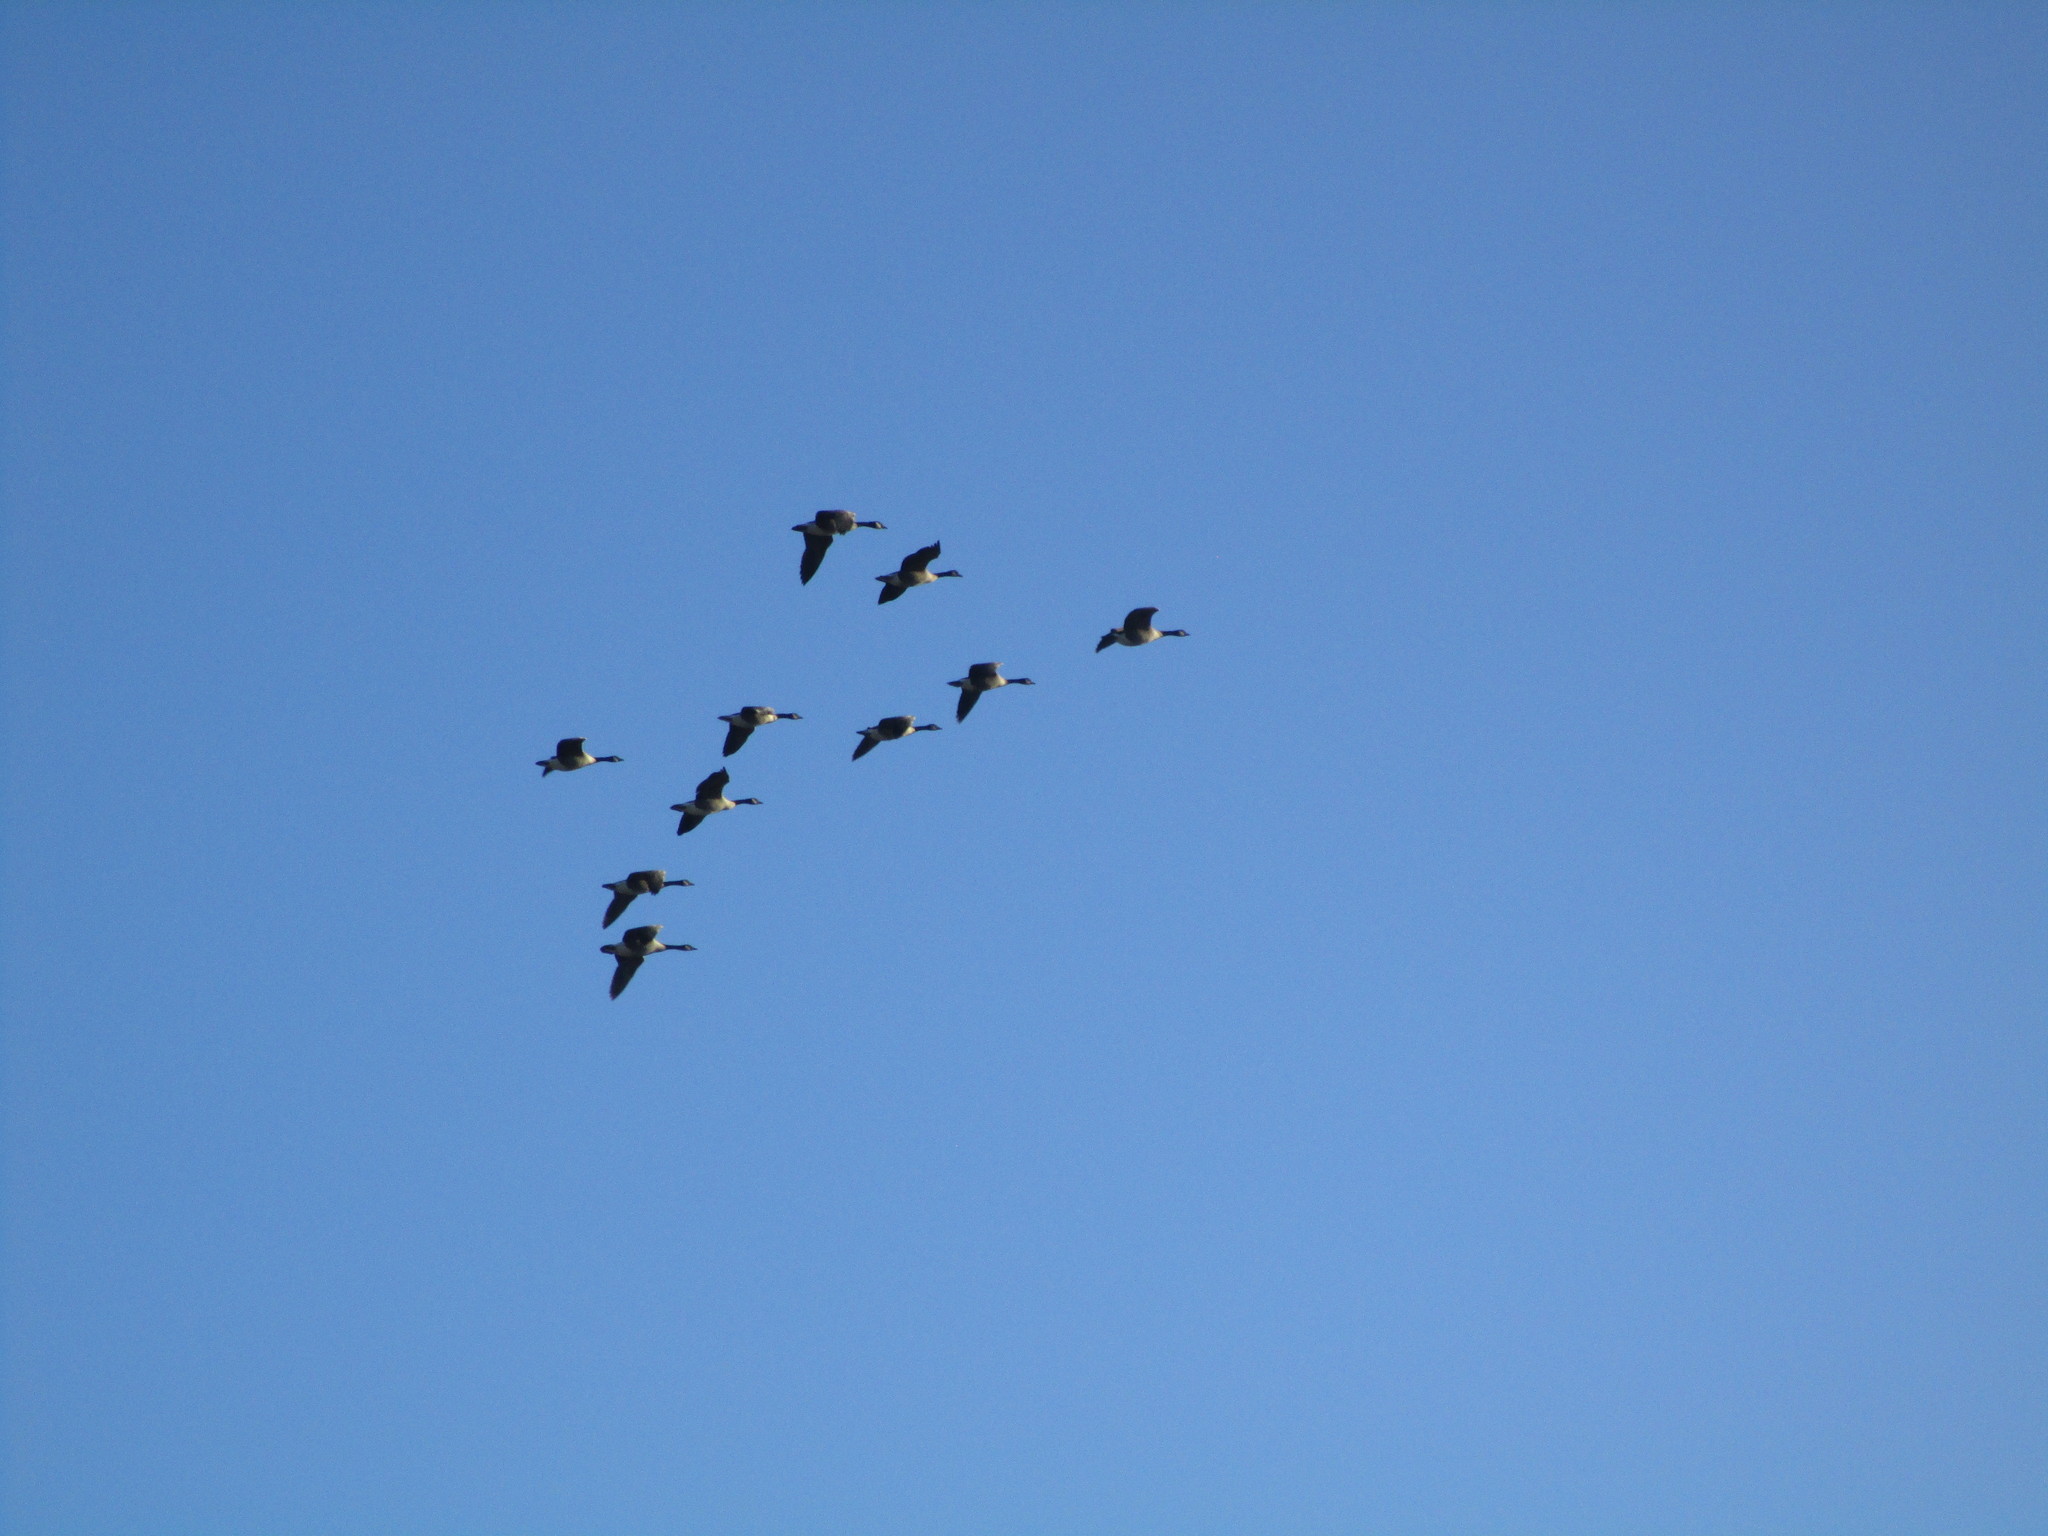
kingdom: Animalia
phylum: Chordata
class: Aves
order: Anseriformes
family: Anatidae
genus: Branta
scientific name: Branta canadensis
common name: Canada goose
